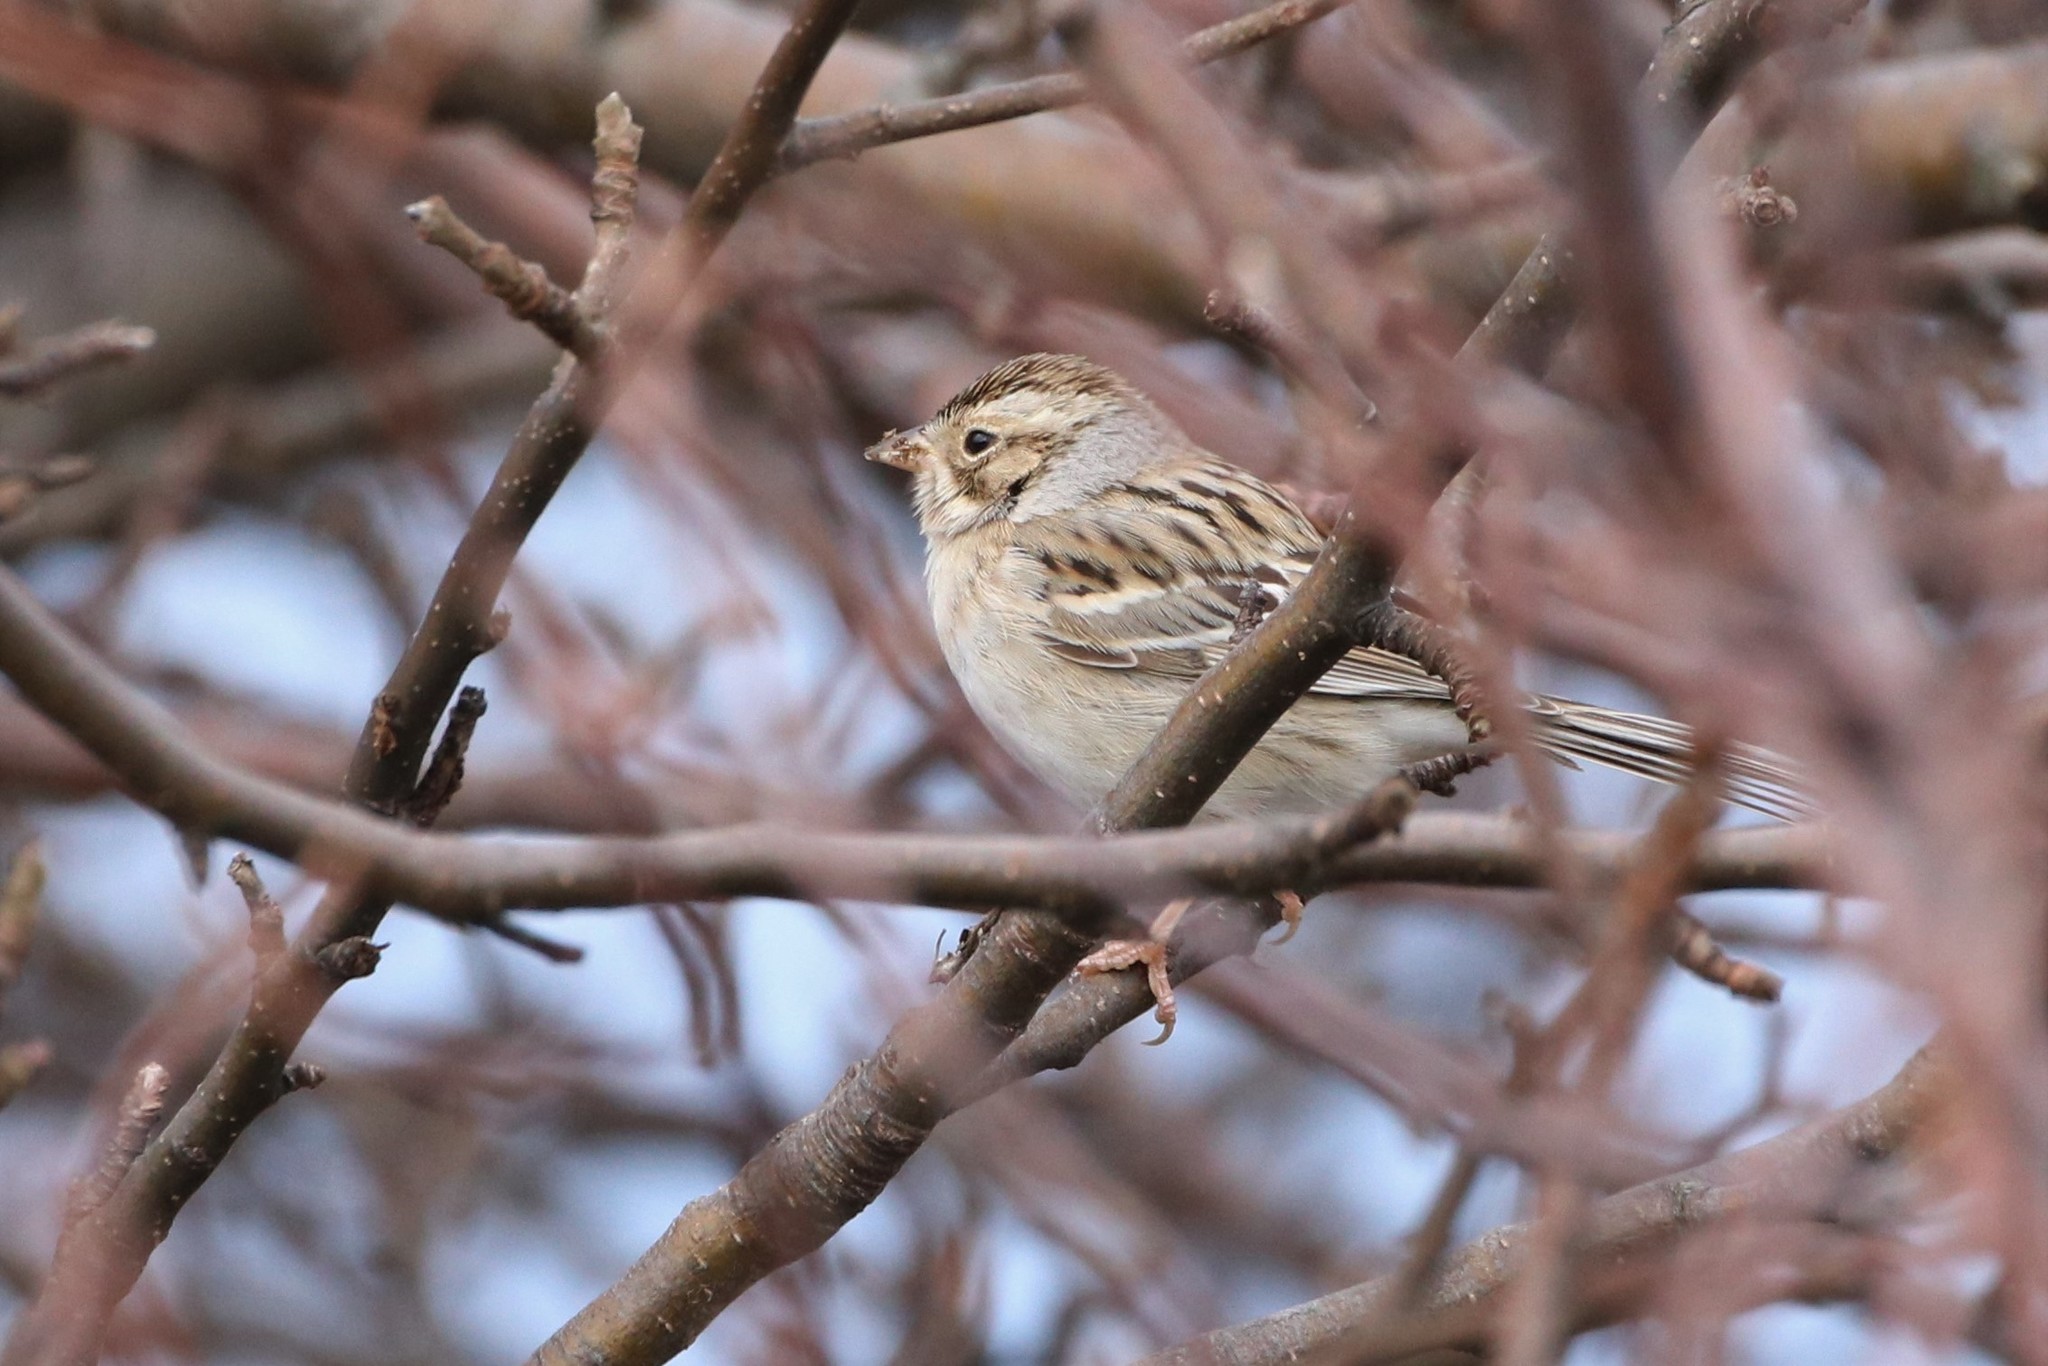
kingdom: Animalia
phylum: Chordata
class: Aves
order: Passeriformes
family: Passerellidae
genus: Spizella
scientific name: Spizella pallida
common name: Clay-colored sparrow
